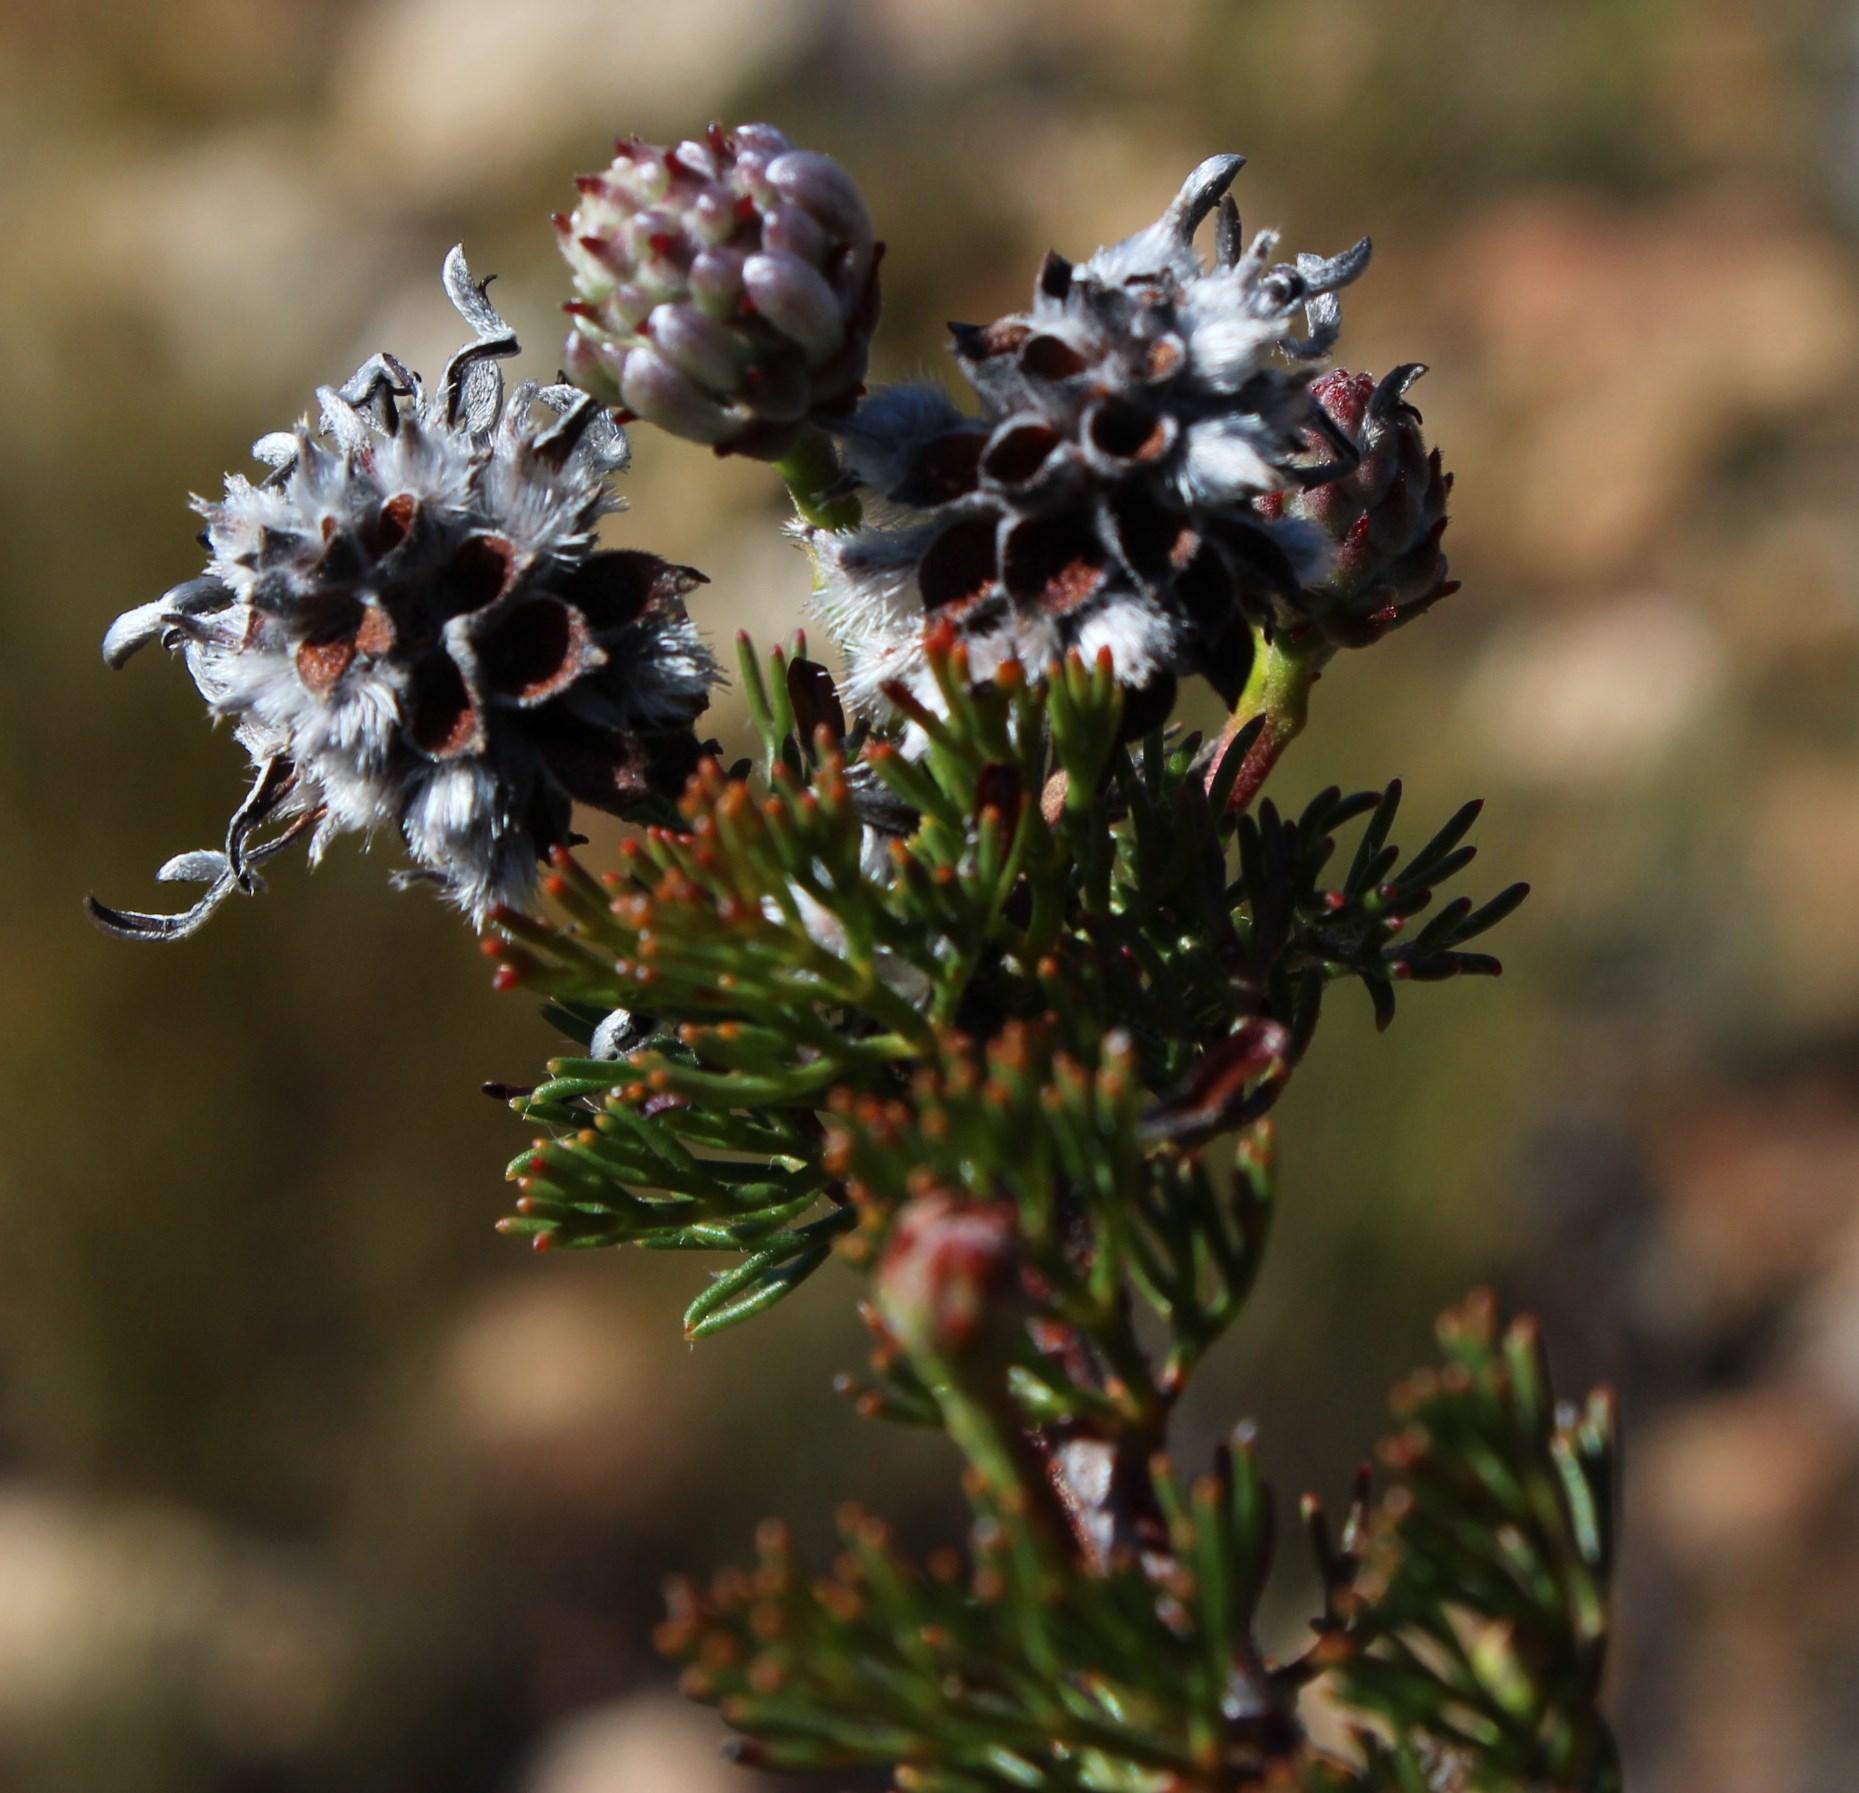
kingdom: Plantae
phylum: Tracheophyta
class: Magnoliopsida
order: Proteales
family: Proteaceae
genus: Serruria
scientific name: Serruria gremialis
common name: Riviersonderend spiderhead
